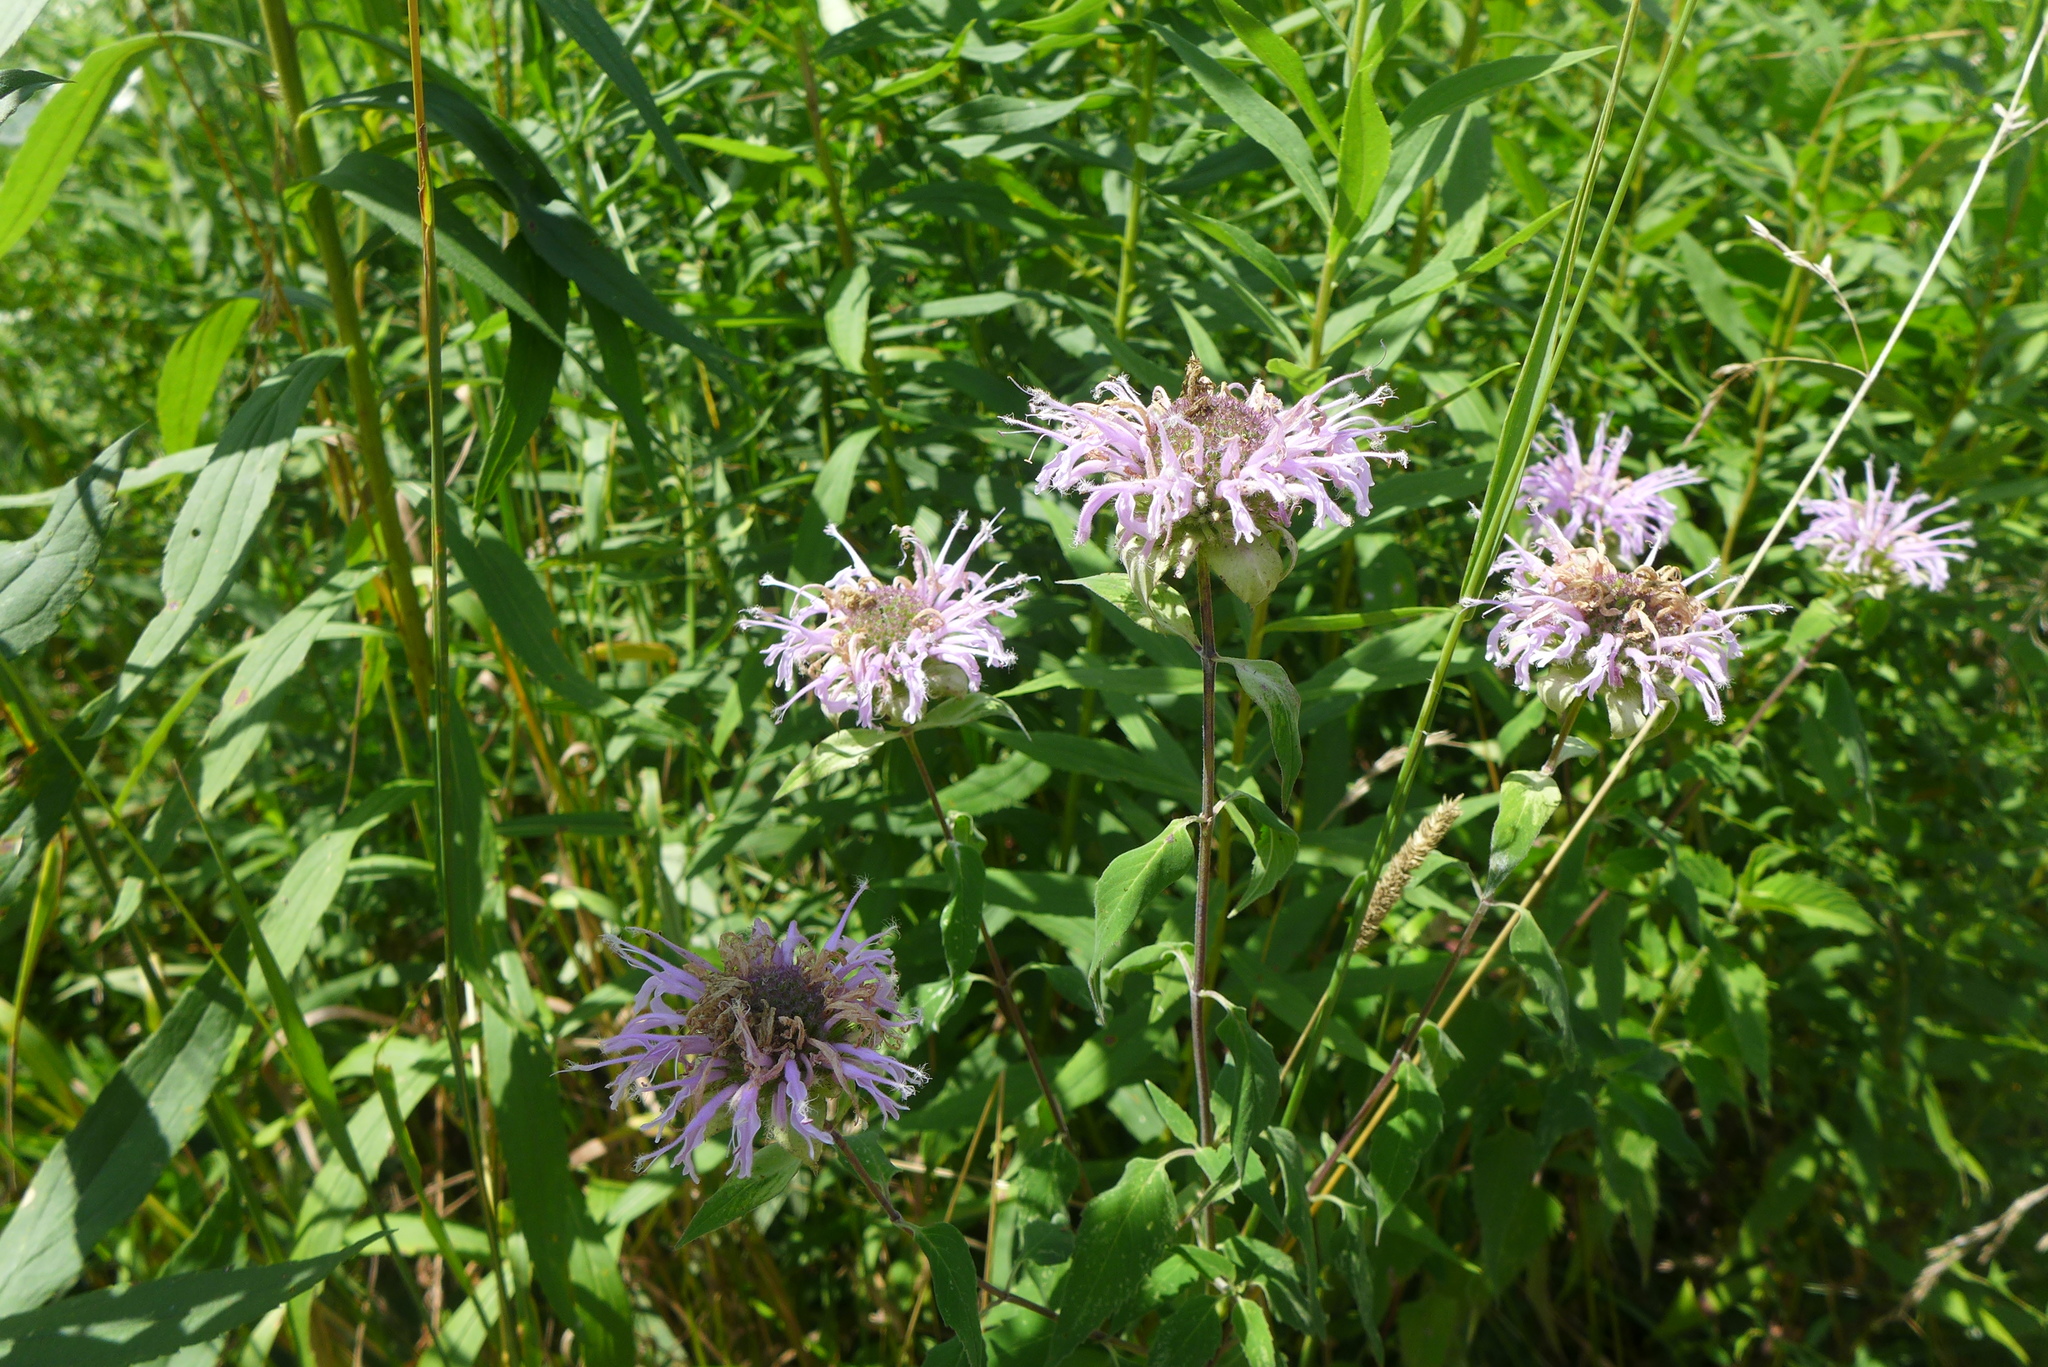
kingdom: Plantae
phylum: Tracheophyta
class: Magnoliopsida
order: Lamiales
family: Lamiaceae
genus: Monarda
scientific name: Monarda fistulosa
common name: Purple beebalm
